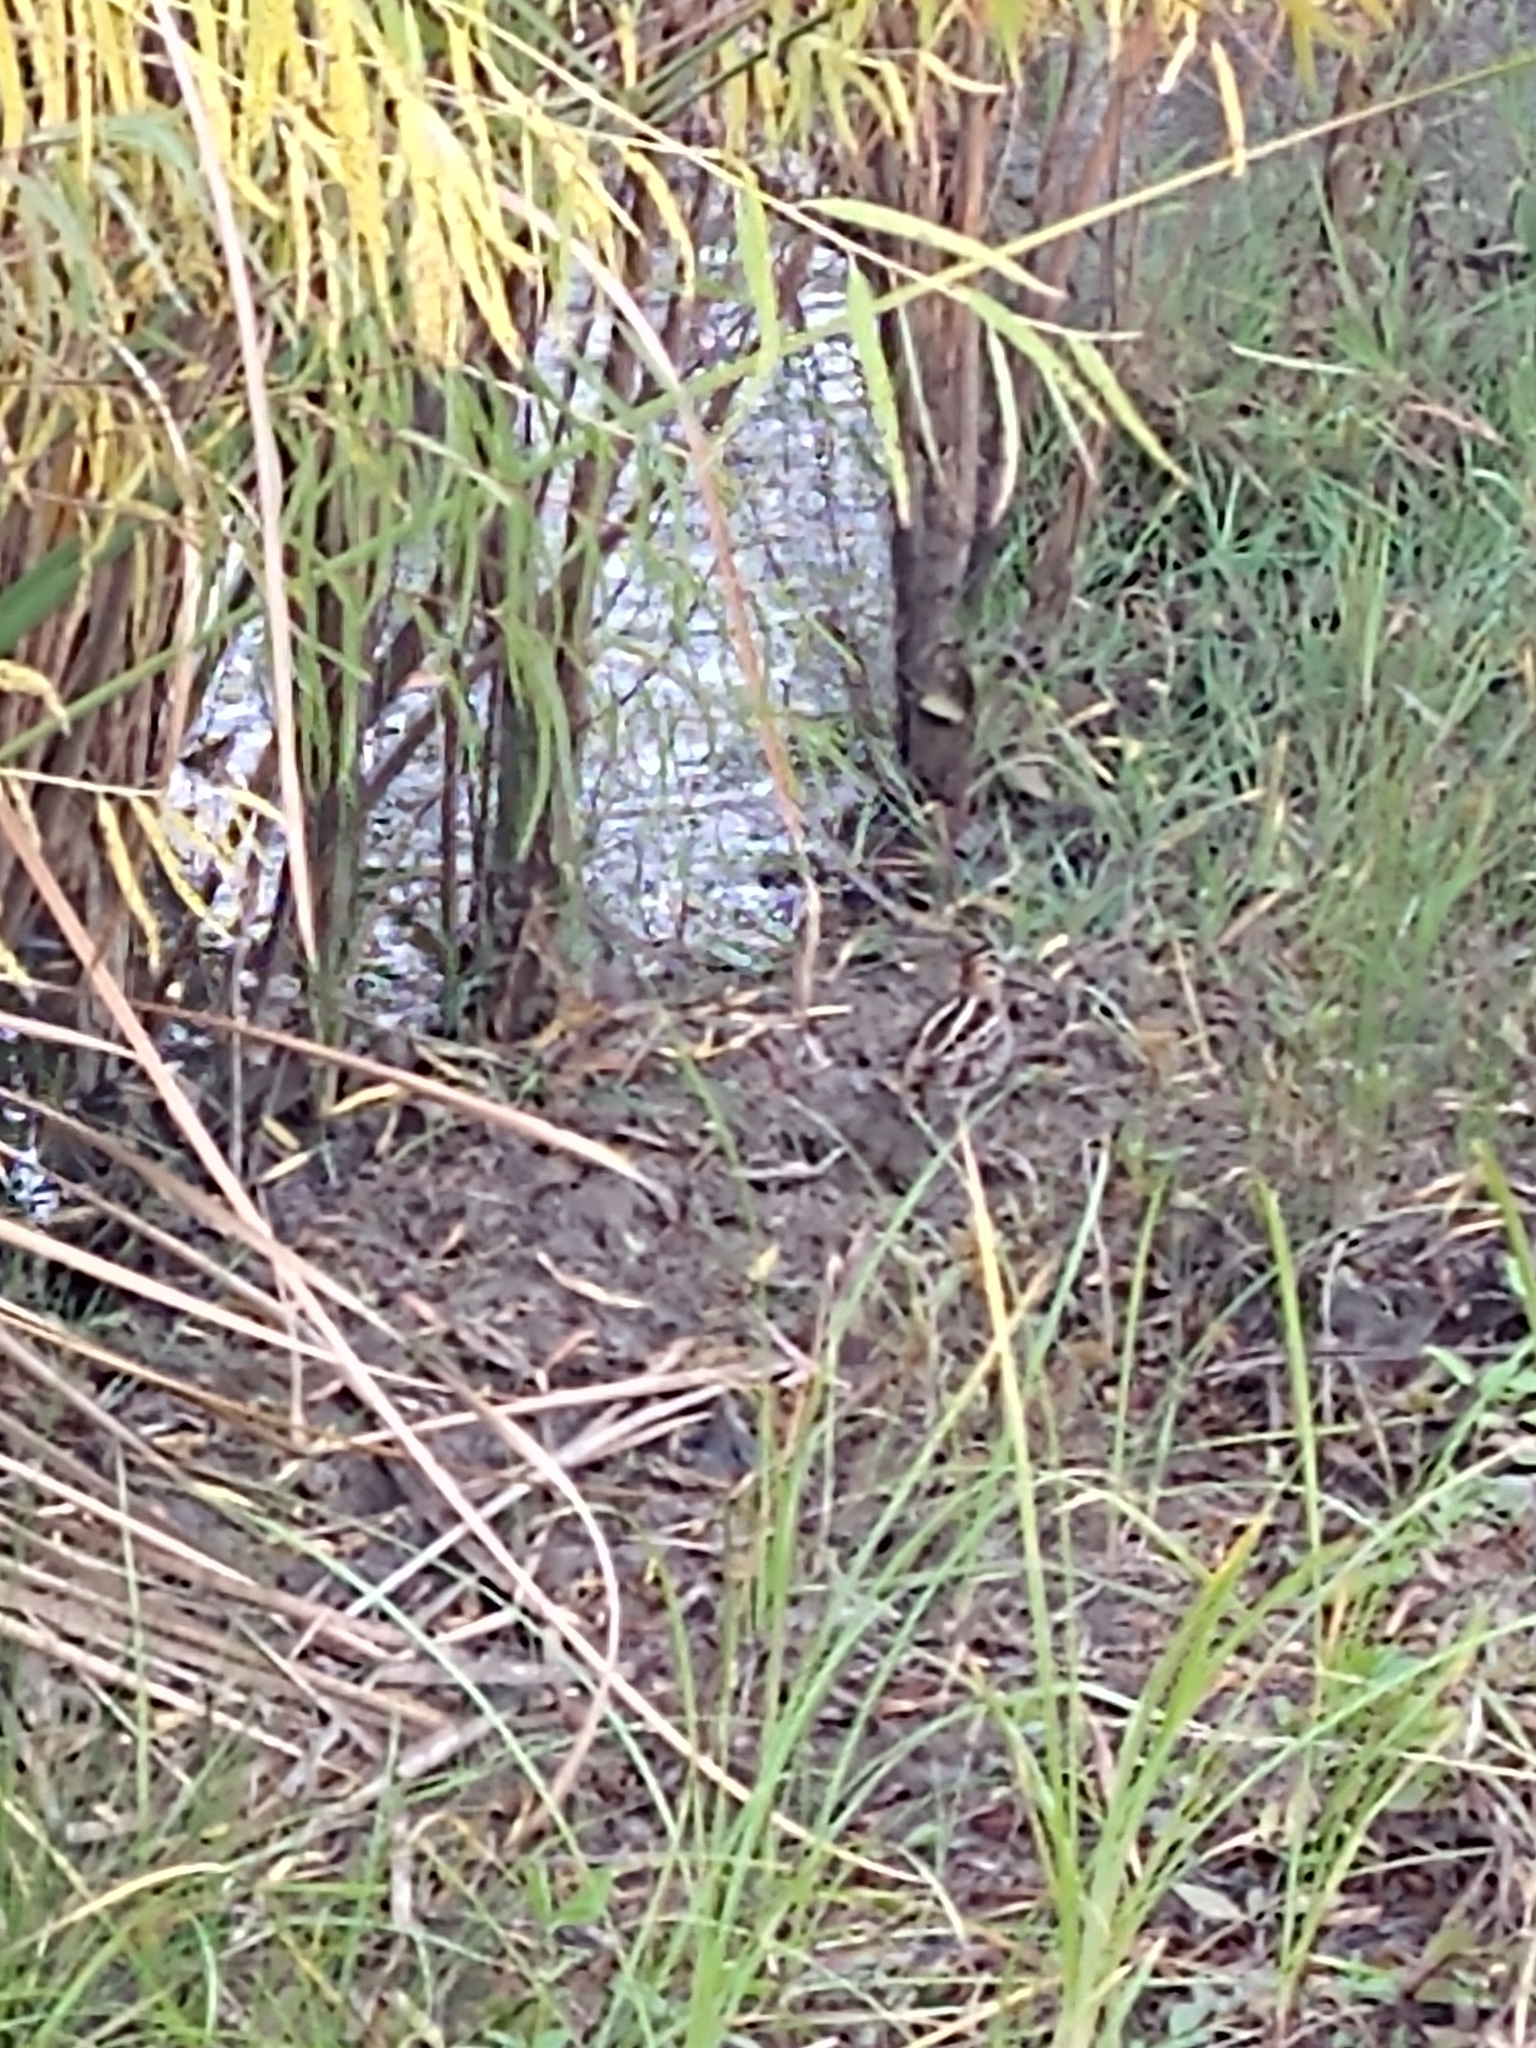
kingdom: Animalia
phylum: Chordata
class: Aves
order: Charadriiformes
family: Scolopacidae
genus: Gallinago
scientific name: Gallinago delicata
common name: Wilson's snipe
